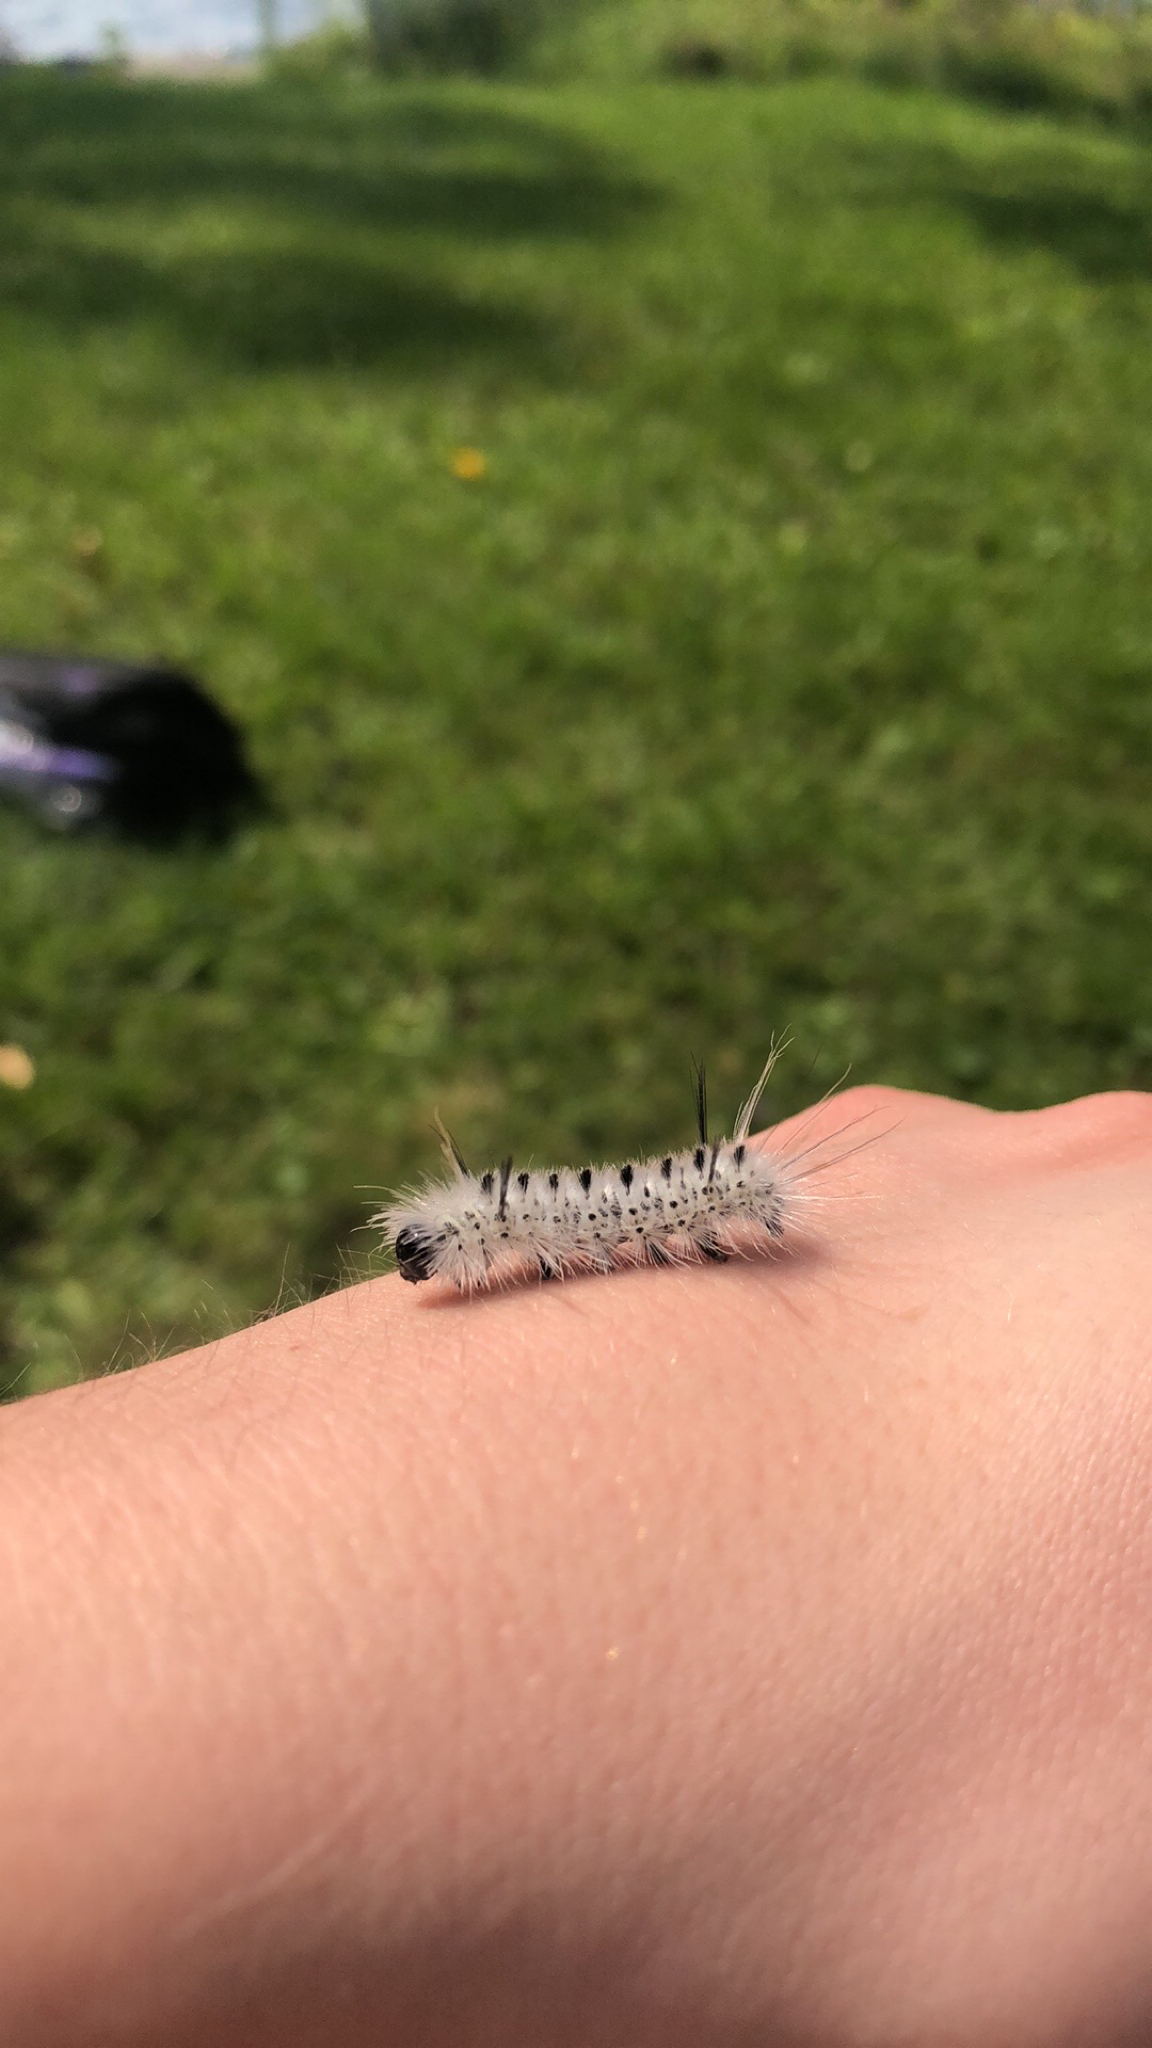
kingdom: Animalia
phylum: Arthropoda
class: Insecta
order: Lepidoptera
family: Erebidae
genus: Lophocampa
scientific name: Lophocampa caryae
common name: Hickory tussock moth
